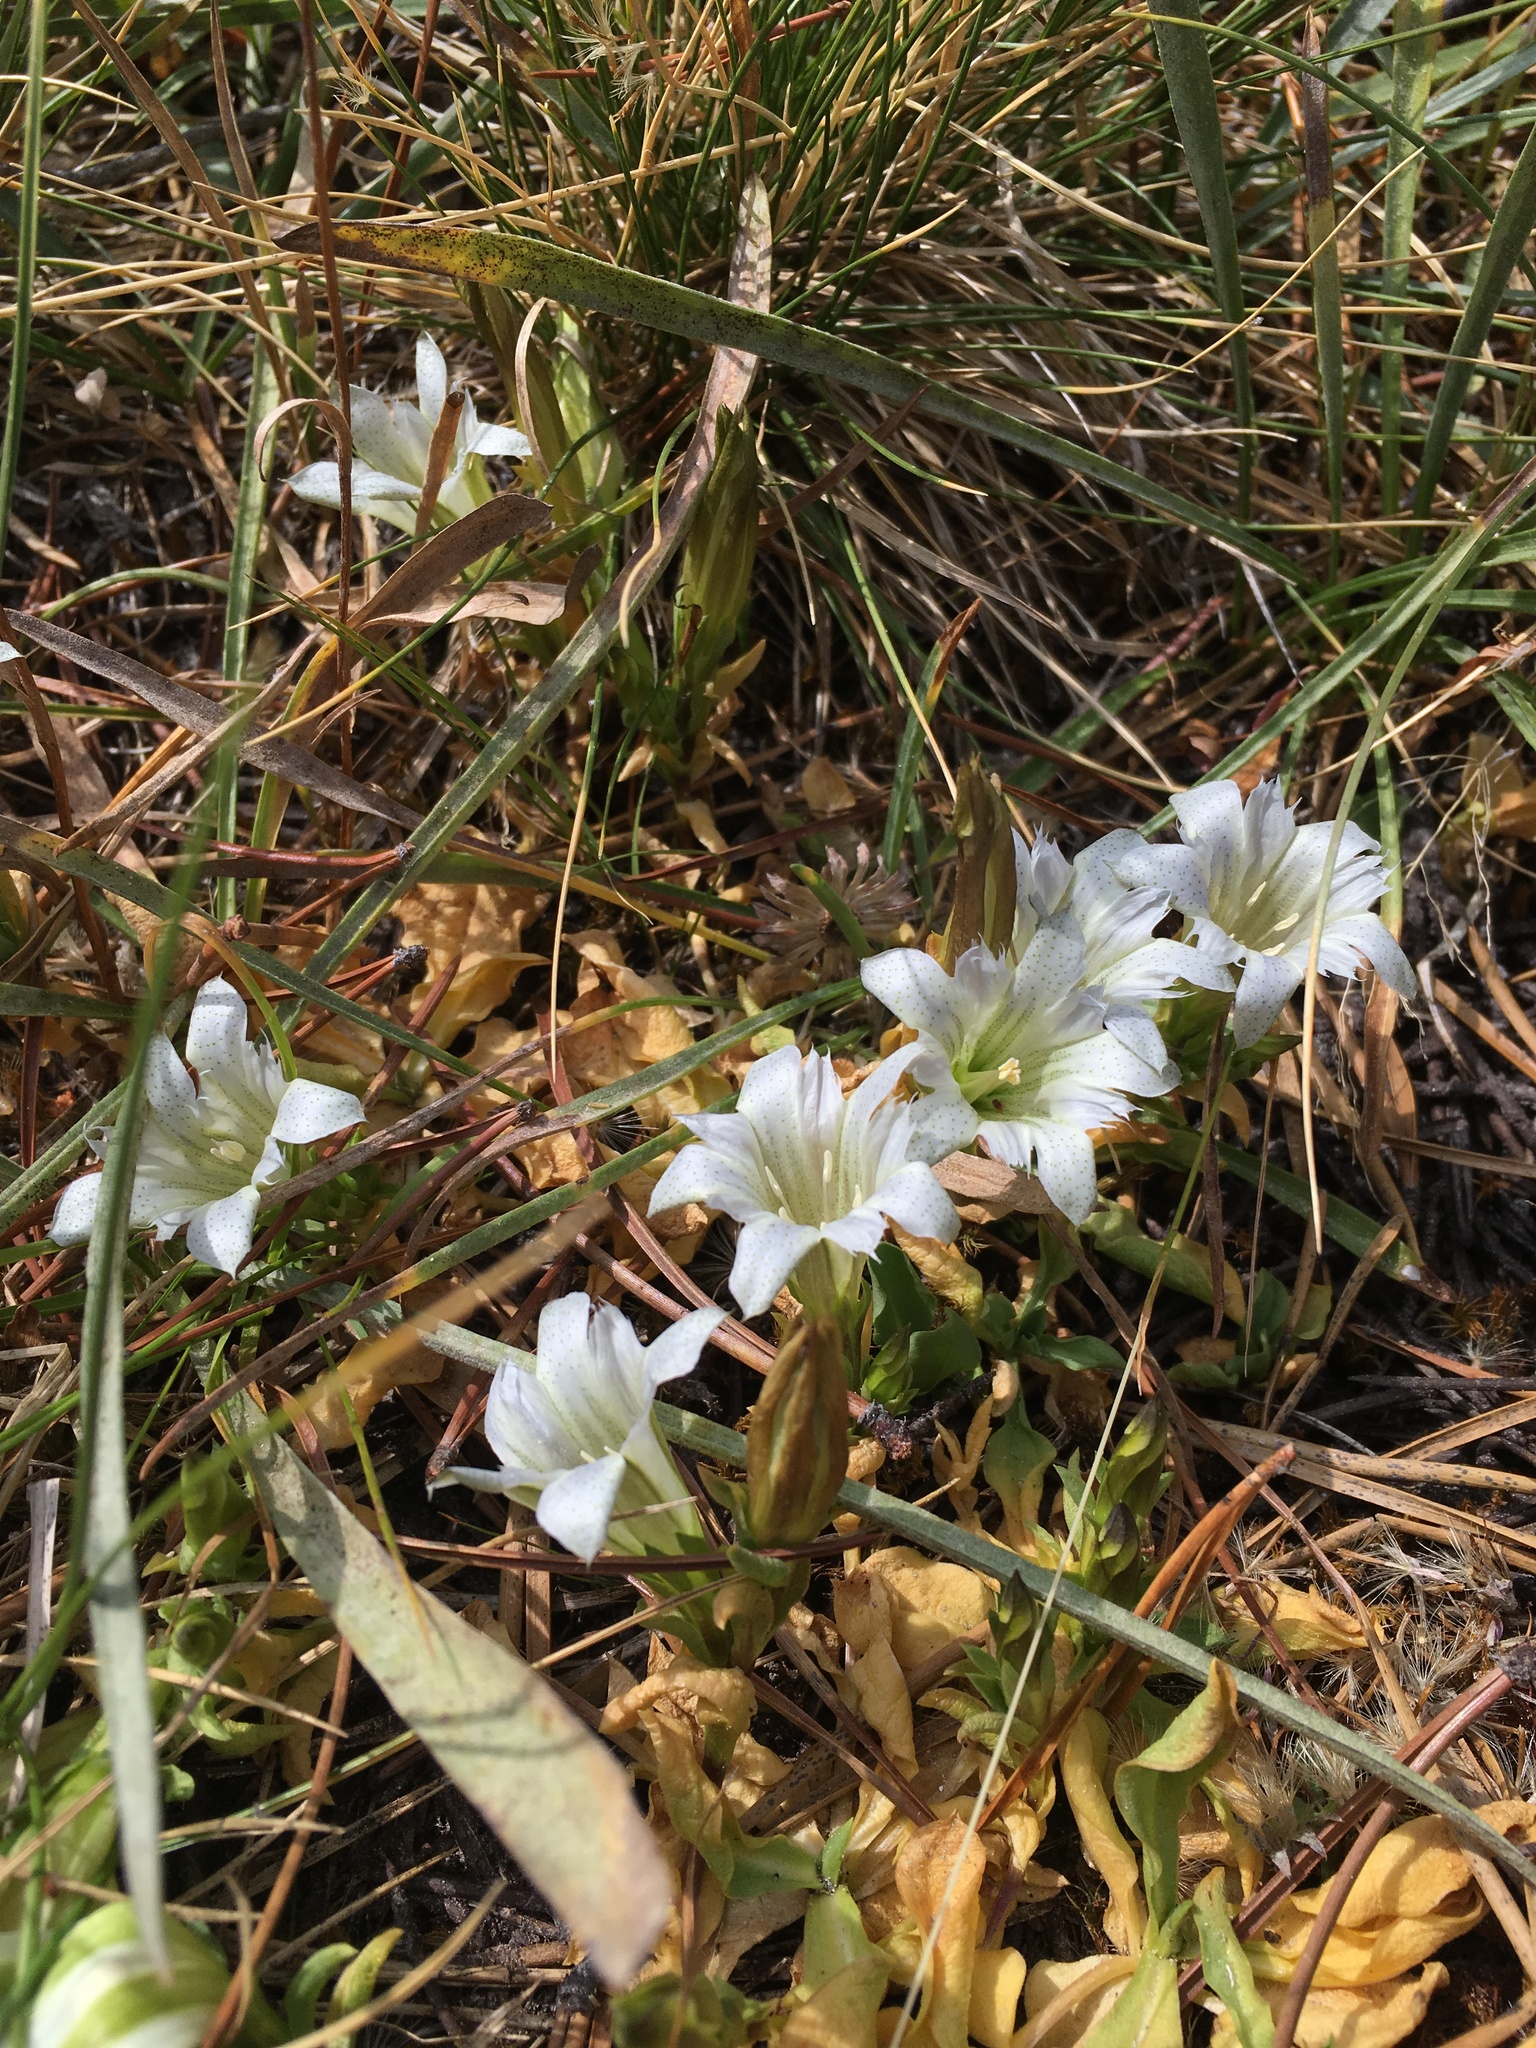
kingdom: Plantae
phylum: Tracheophyta
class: Magnoliopsida
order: Gentianales
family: Gentianaceae
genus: Gentiana
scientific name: Gentiana newberryi
